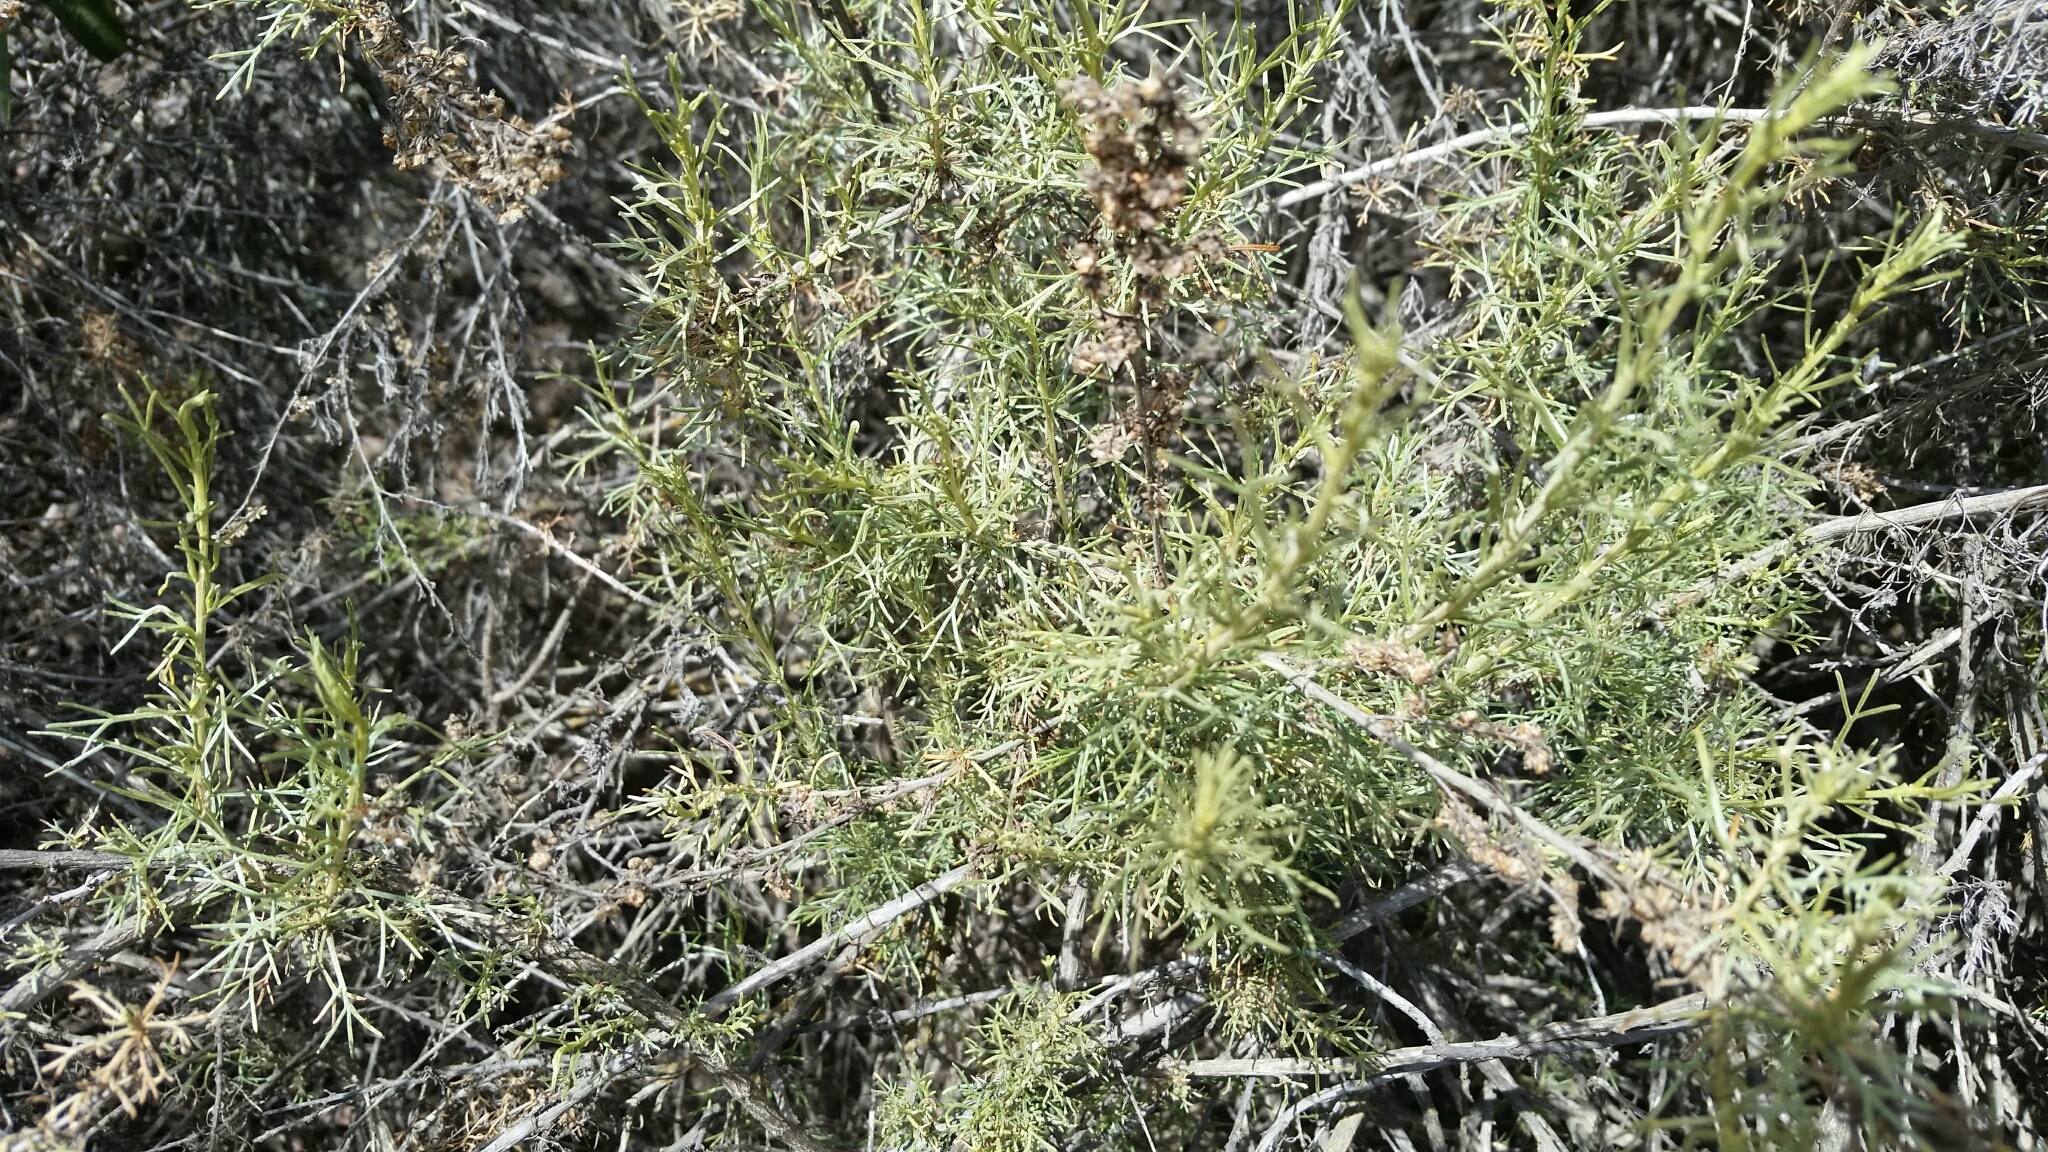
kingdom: Plantae
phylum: Tracheophyta
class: Magnoliopsida
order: Asterales
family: Asteraceae
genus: Artemisia
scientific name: Artemisia californica
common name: California sagebrush
